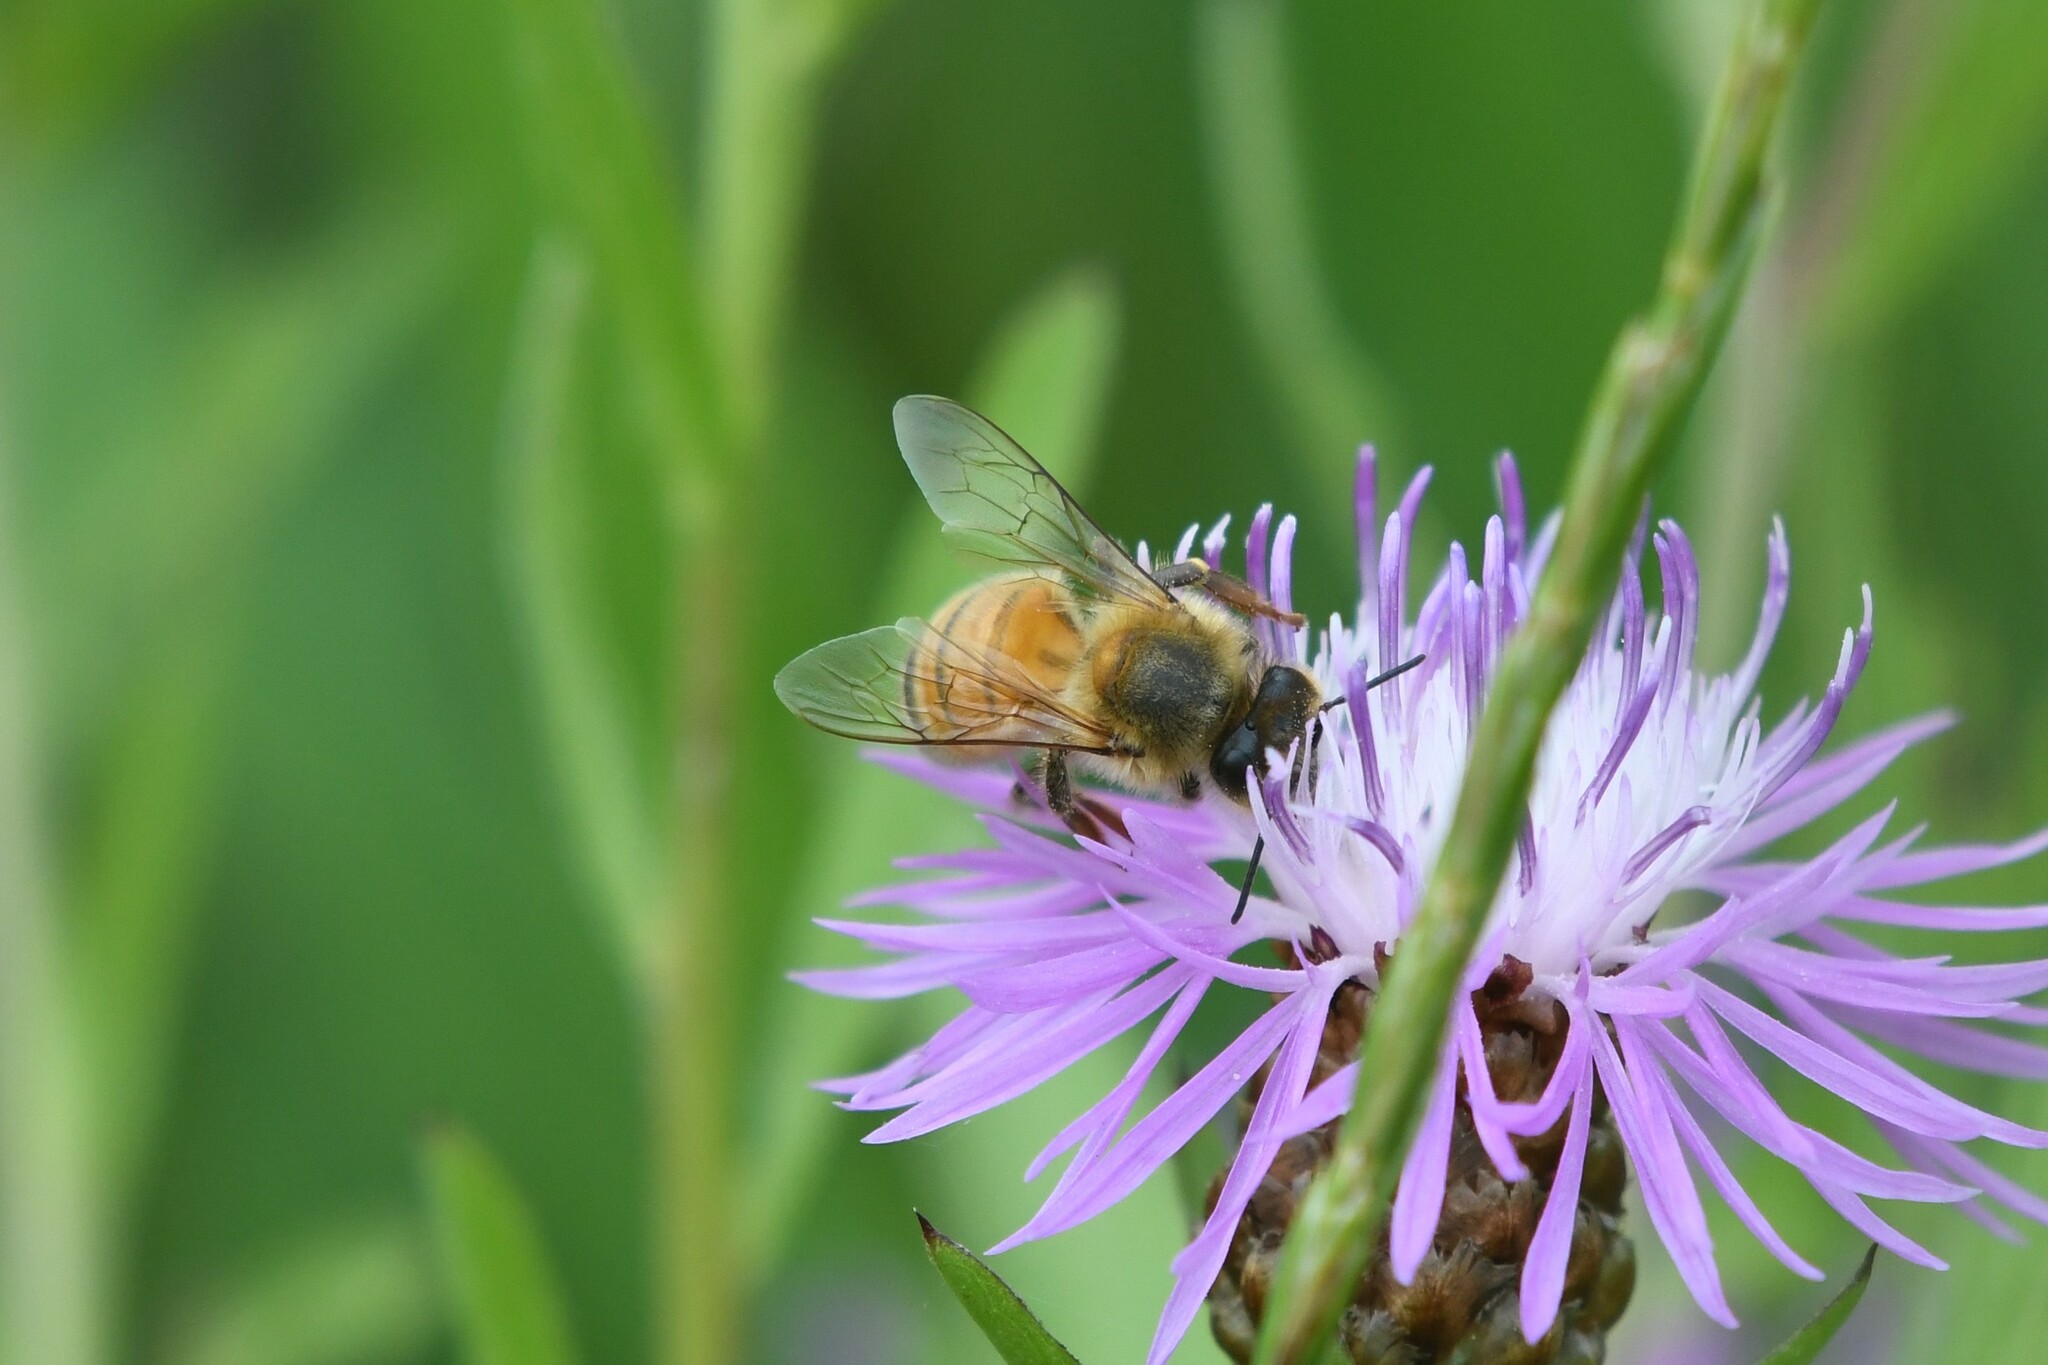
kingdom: Animalia
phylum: Arthropoda
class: Insecta
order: Hymenoptera
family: Apidae
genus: Apis
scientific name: Apis mellifera
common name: Honey bee
